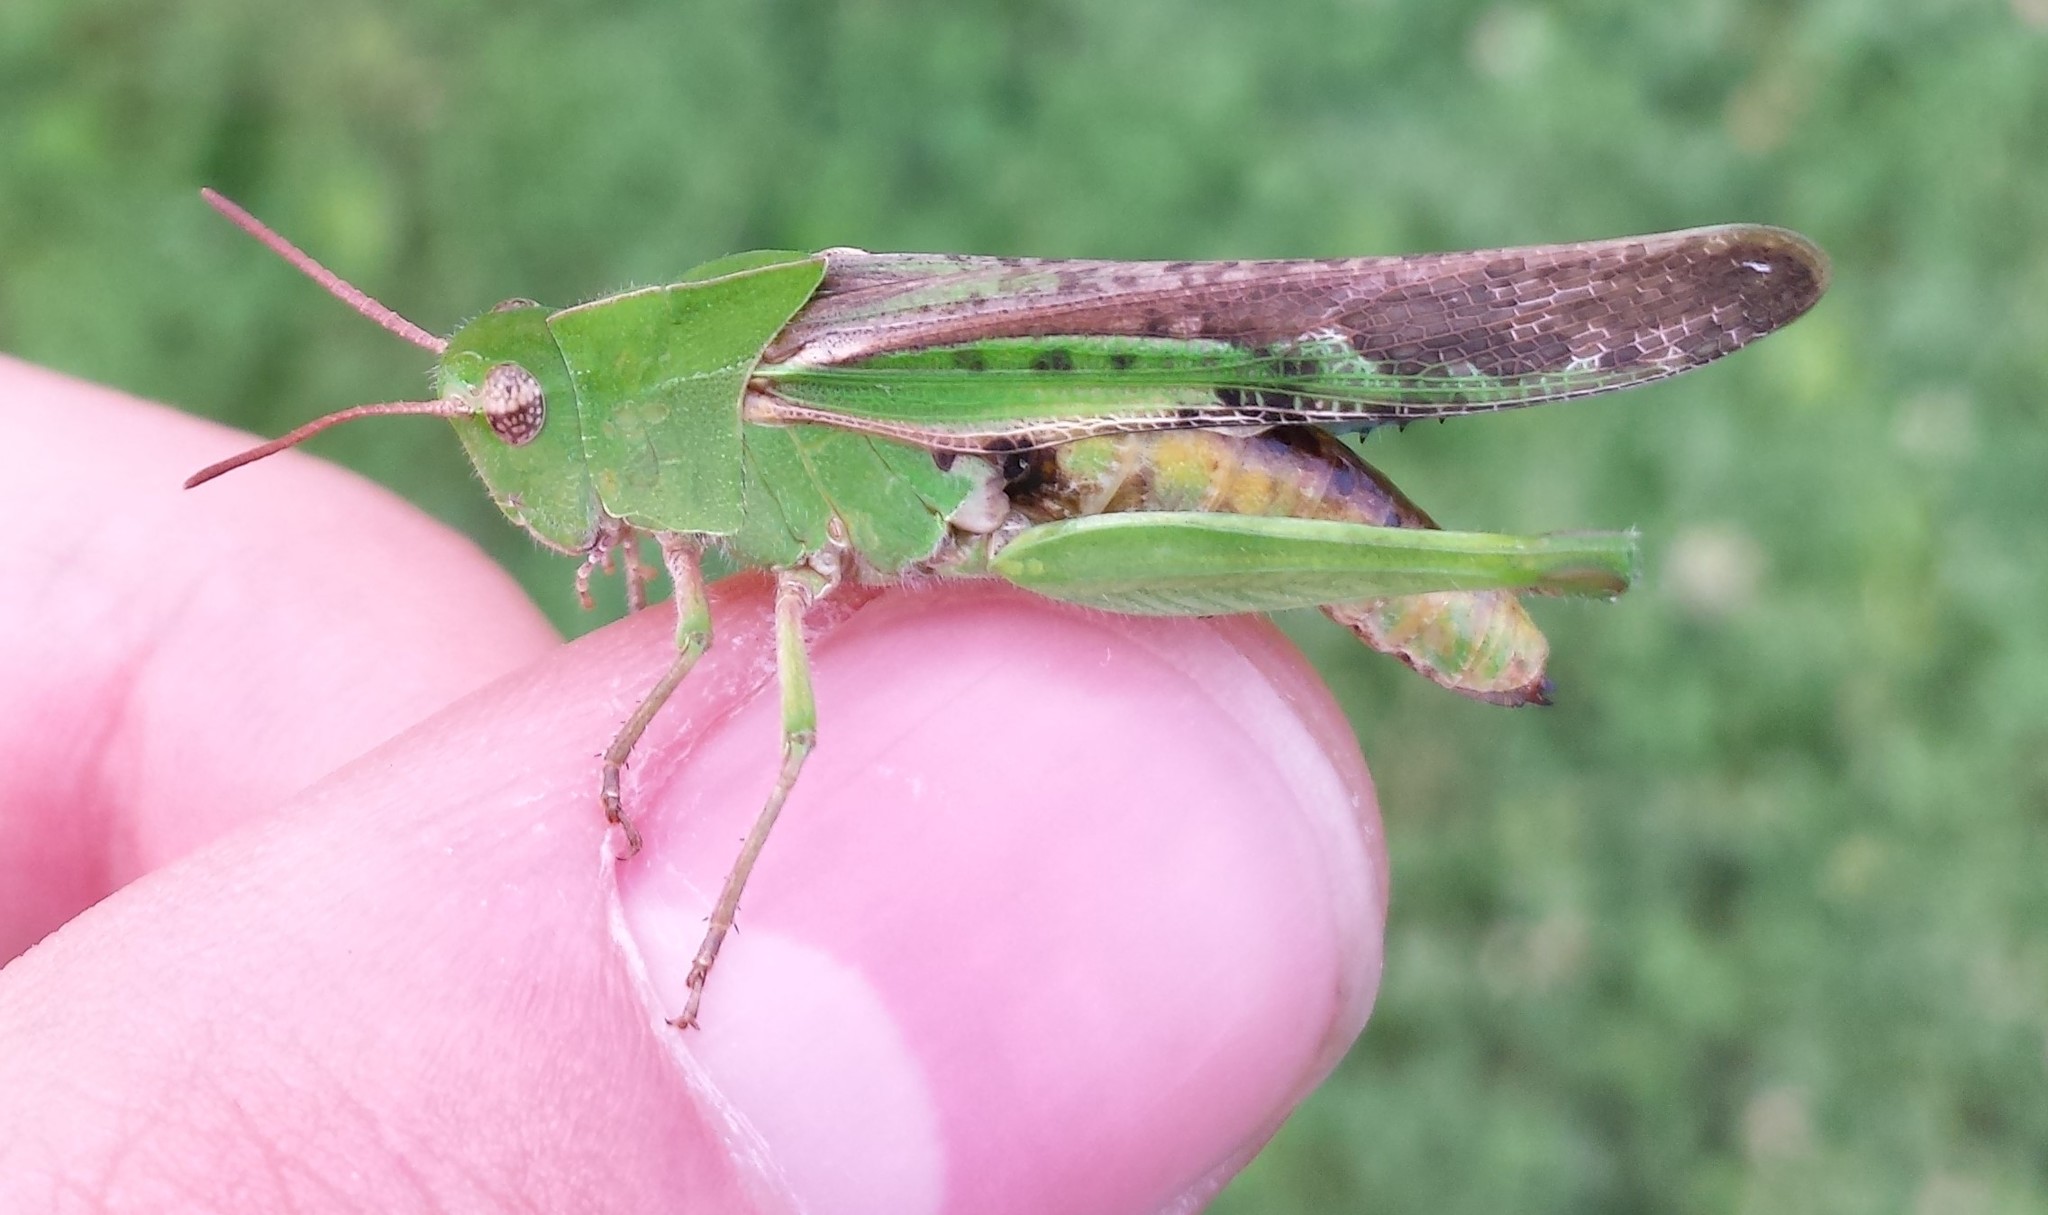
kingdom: Animalia
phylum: Arthropoda
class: Insecta
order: Orthoptera
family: Acrididae
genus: Chortophaga
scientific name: Chortophaga viridifasciata
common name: Green-striped grasshopper
